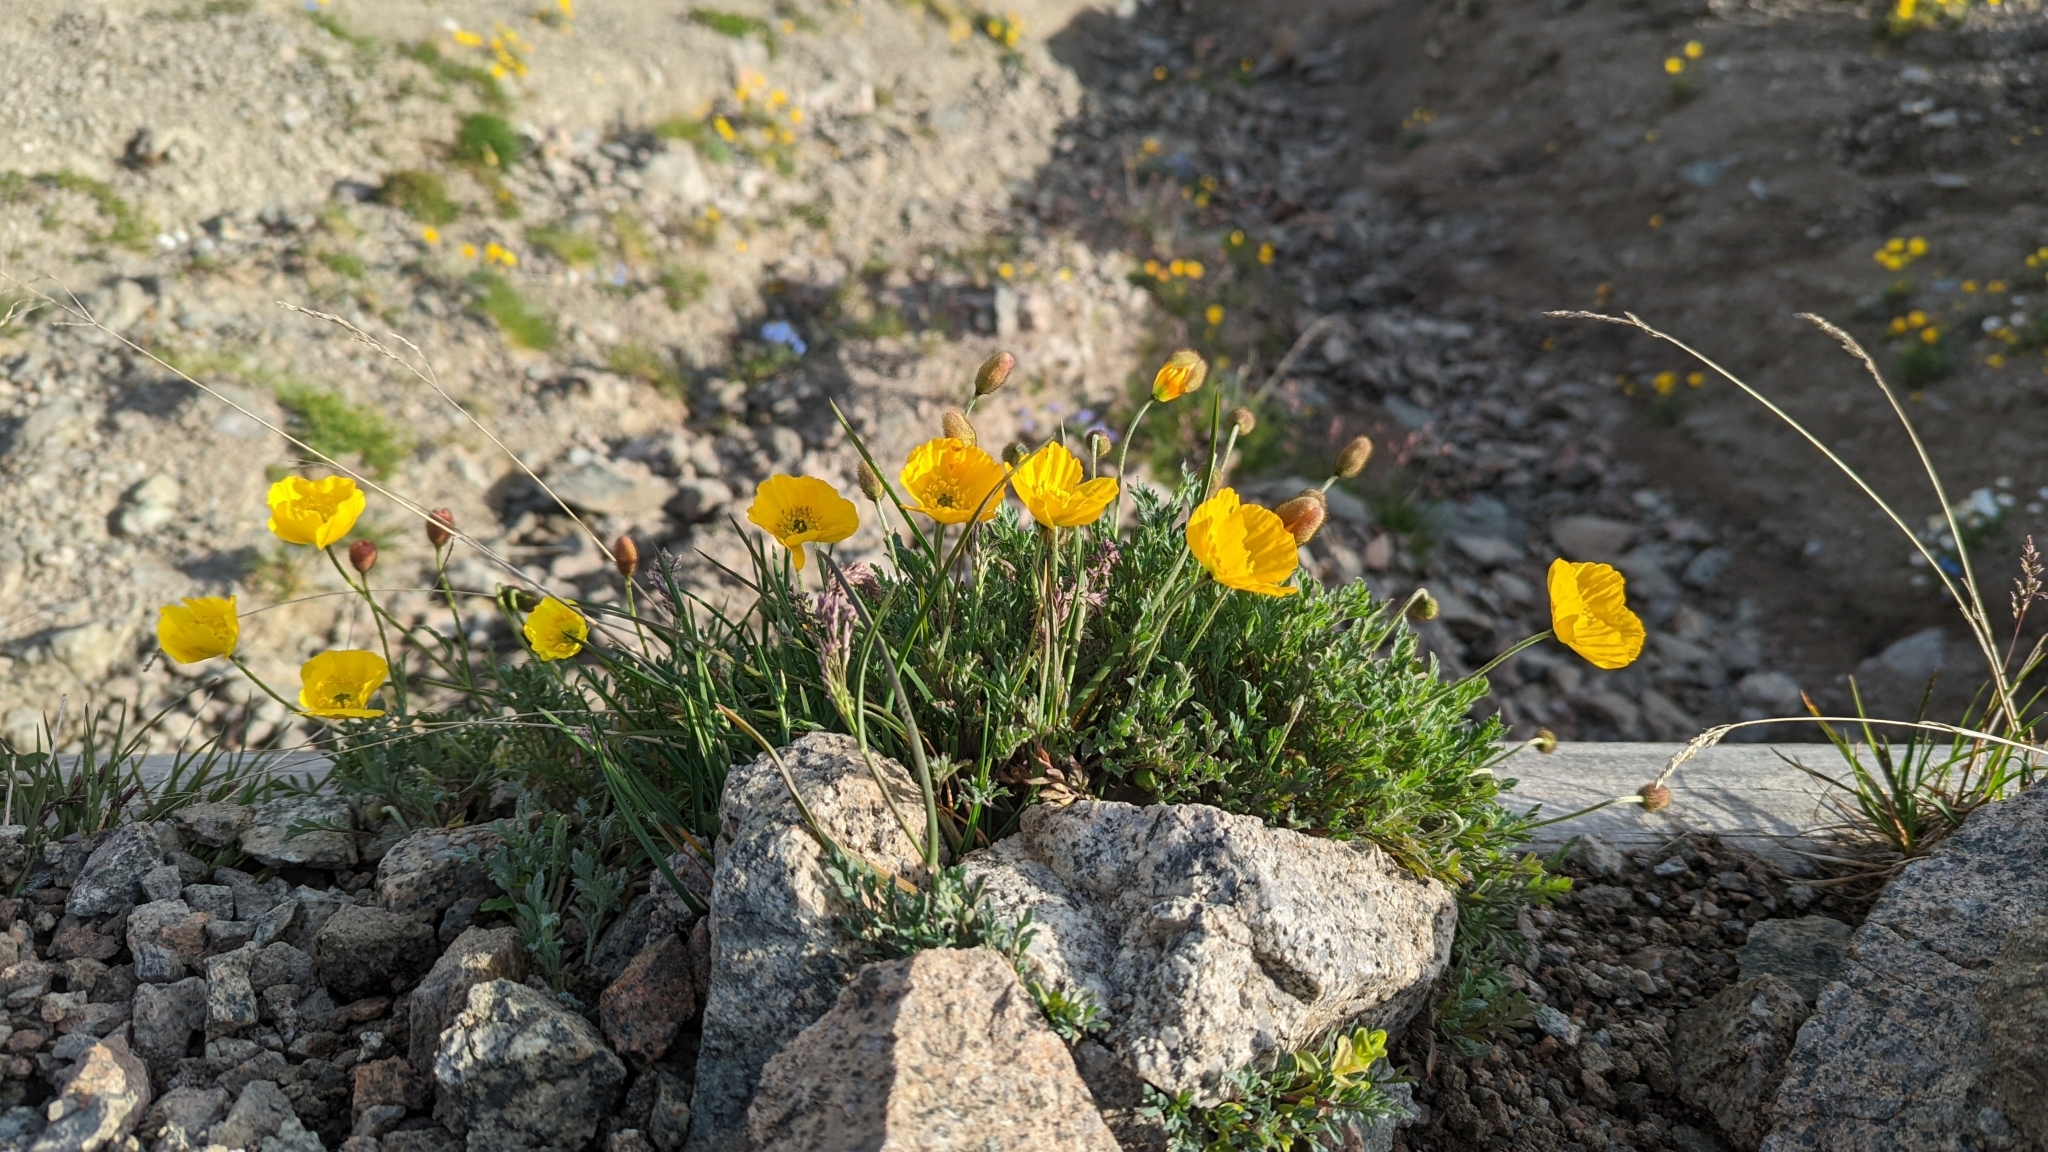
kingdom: Plantae
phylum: Tracheophyta
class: Magnoliopsida
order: Ranunculales
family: Papaveraceae
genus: Papaver
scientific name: Papaver alpinum
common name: Austrian poppy
